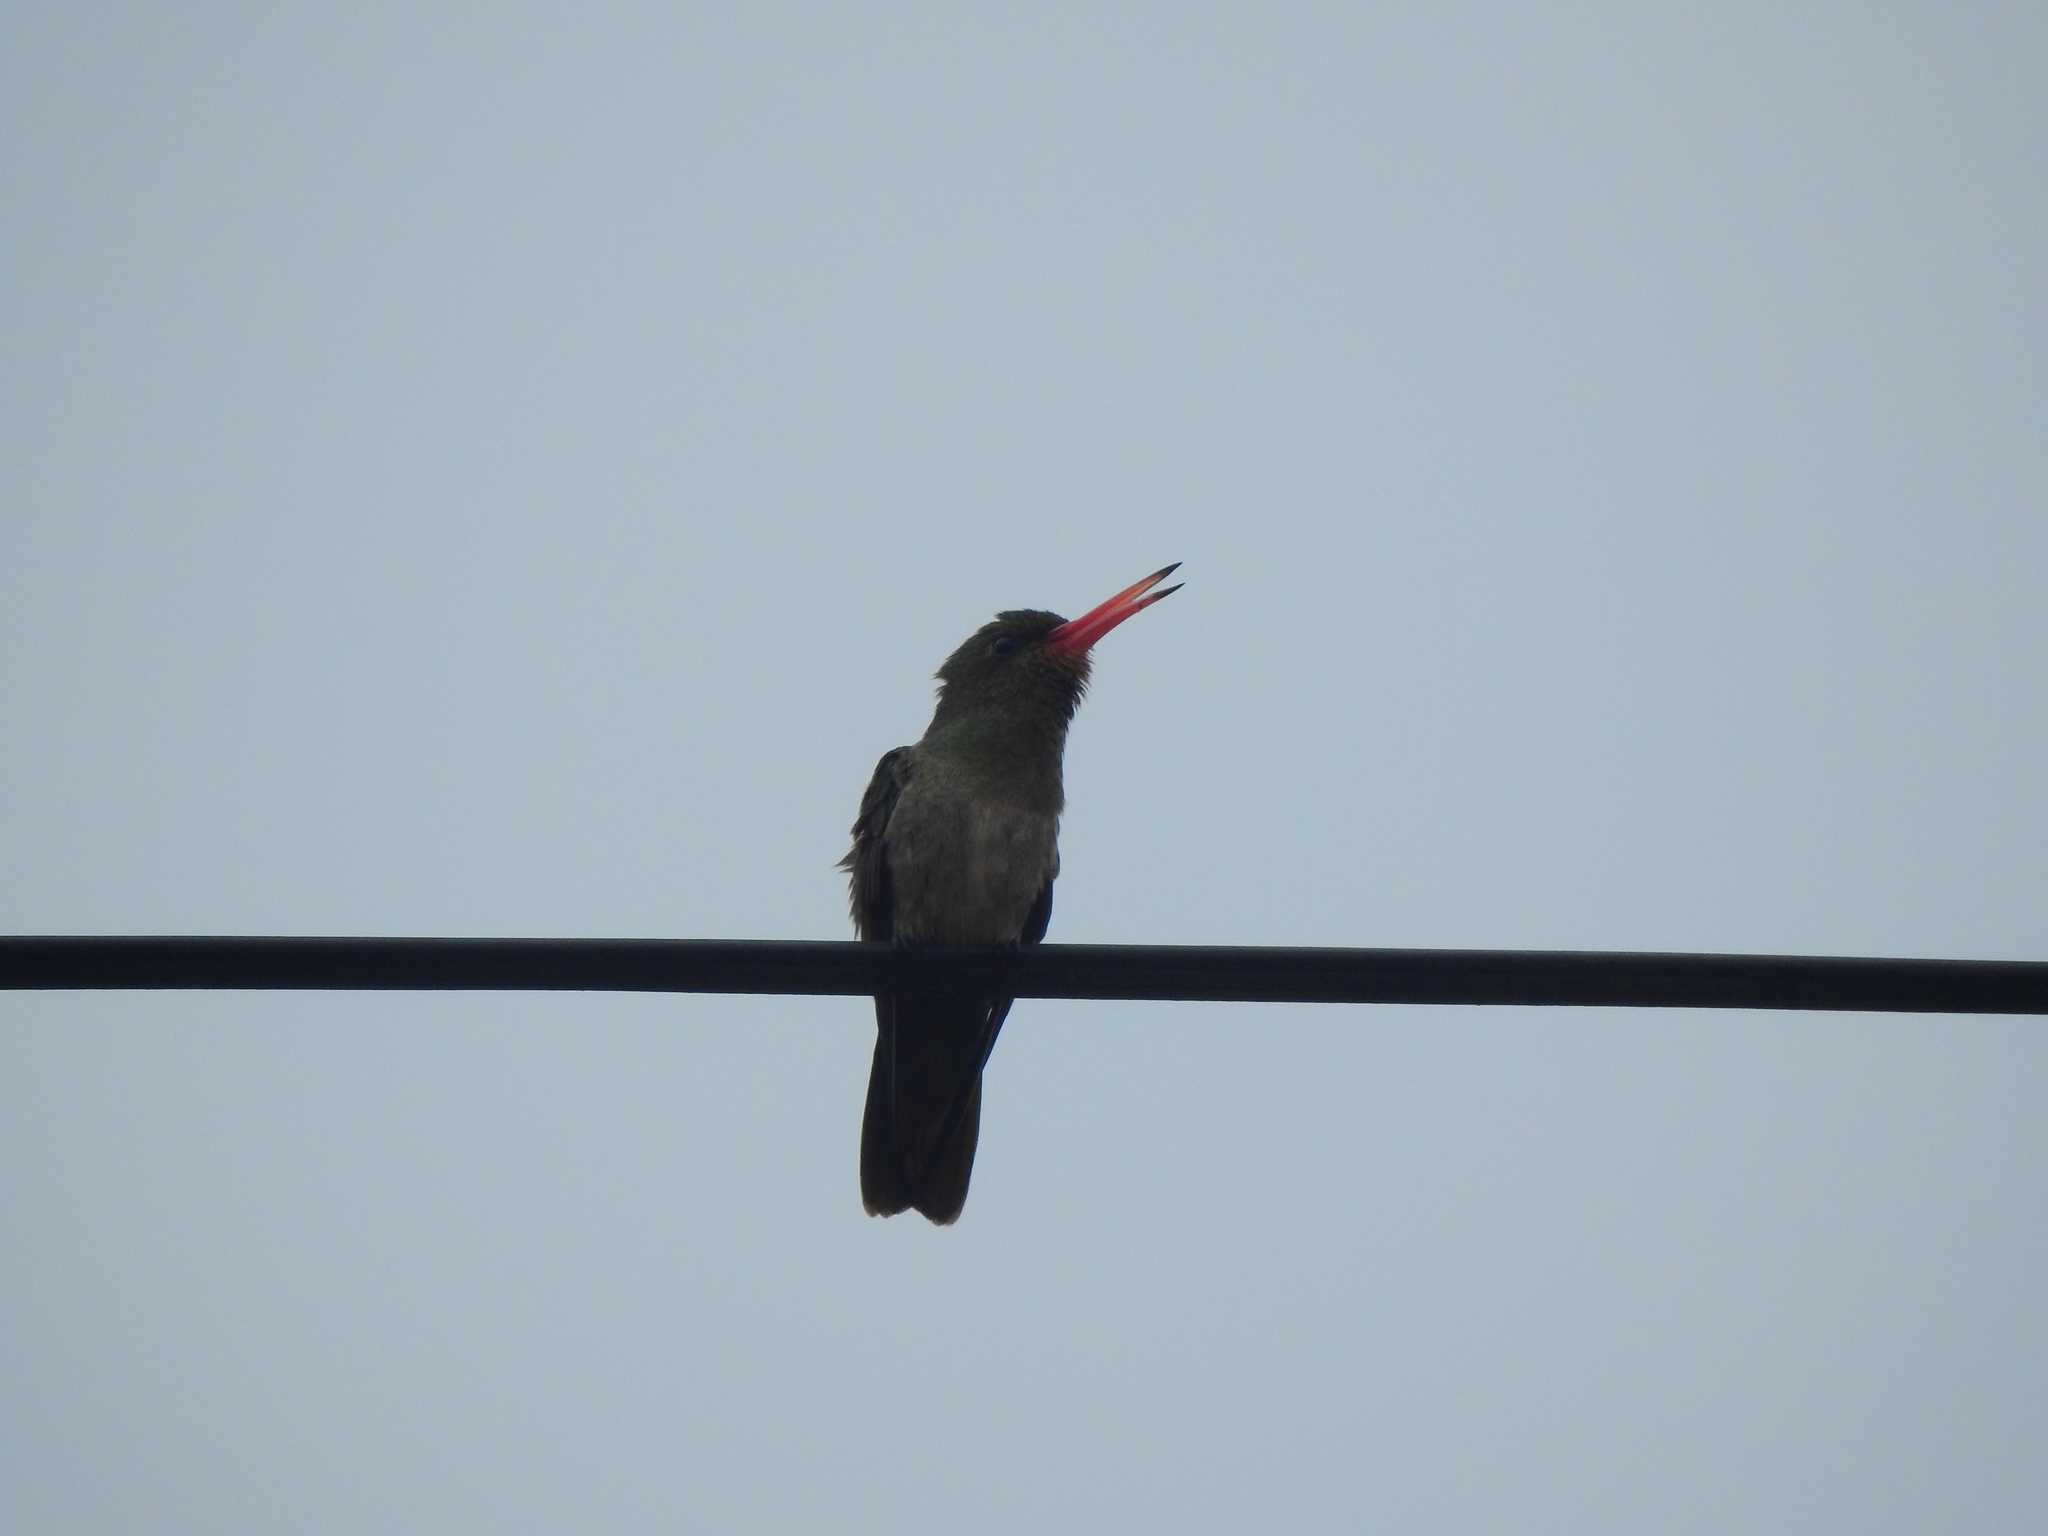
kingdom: Animalia
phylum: Chordata
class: Aves
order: Apodiformes
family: Trochilidae
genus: Hylocharis
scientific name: Hylocharis chrysura
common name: Gilded sapphire
